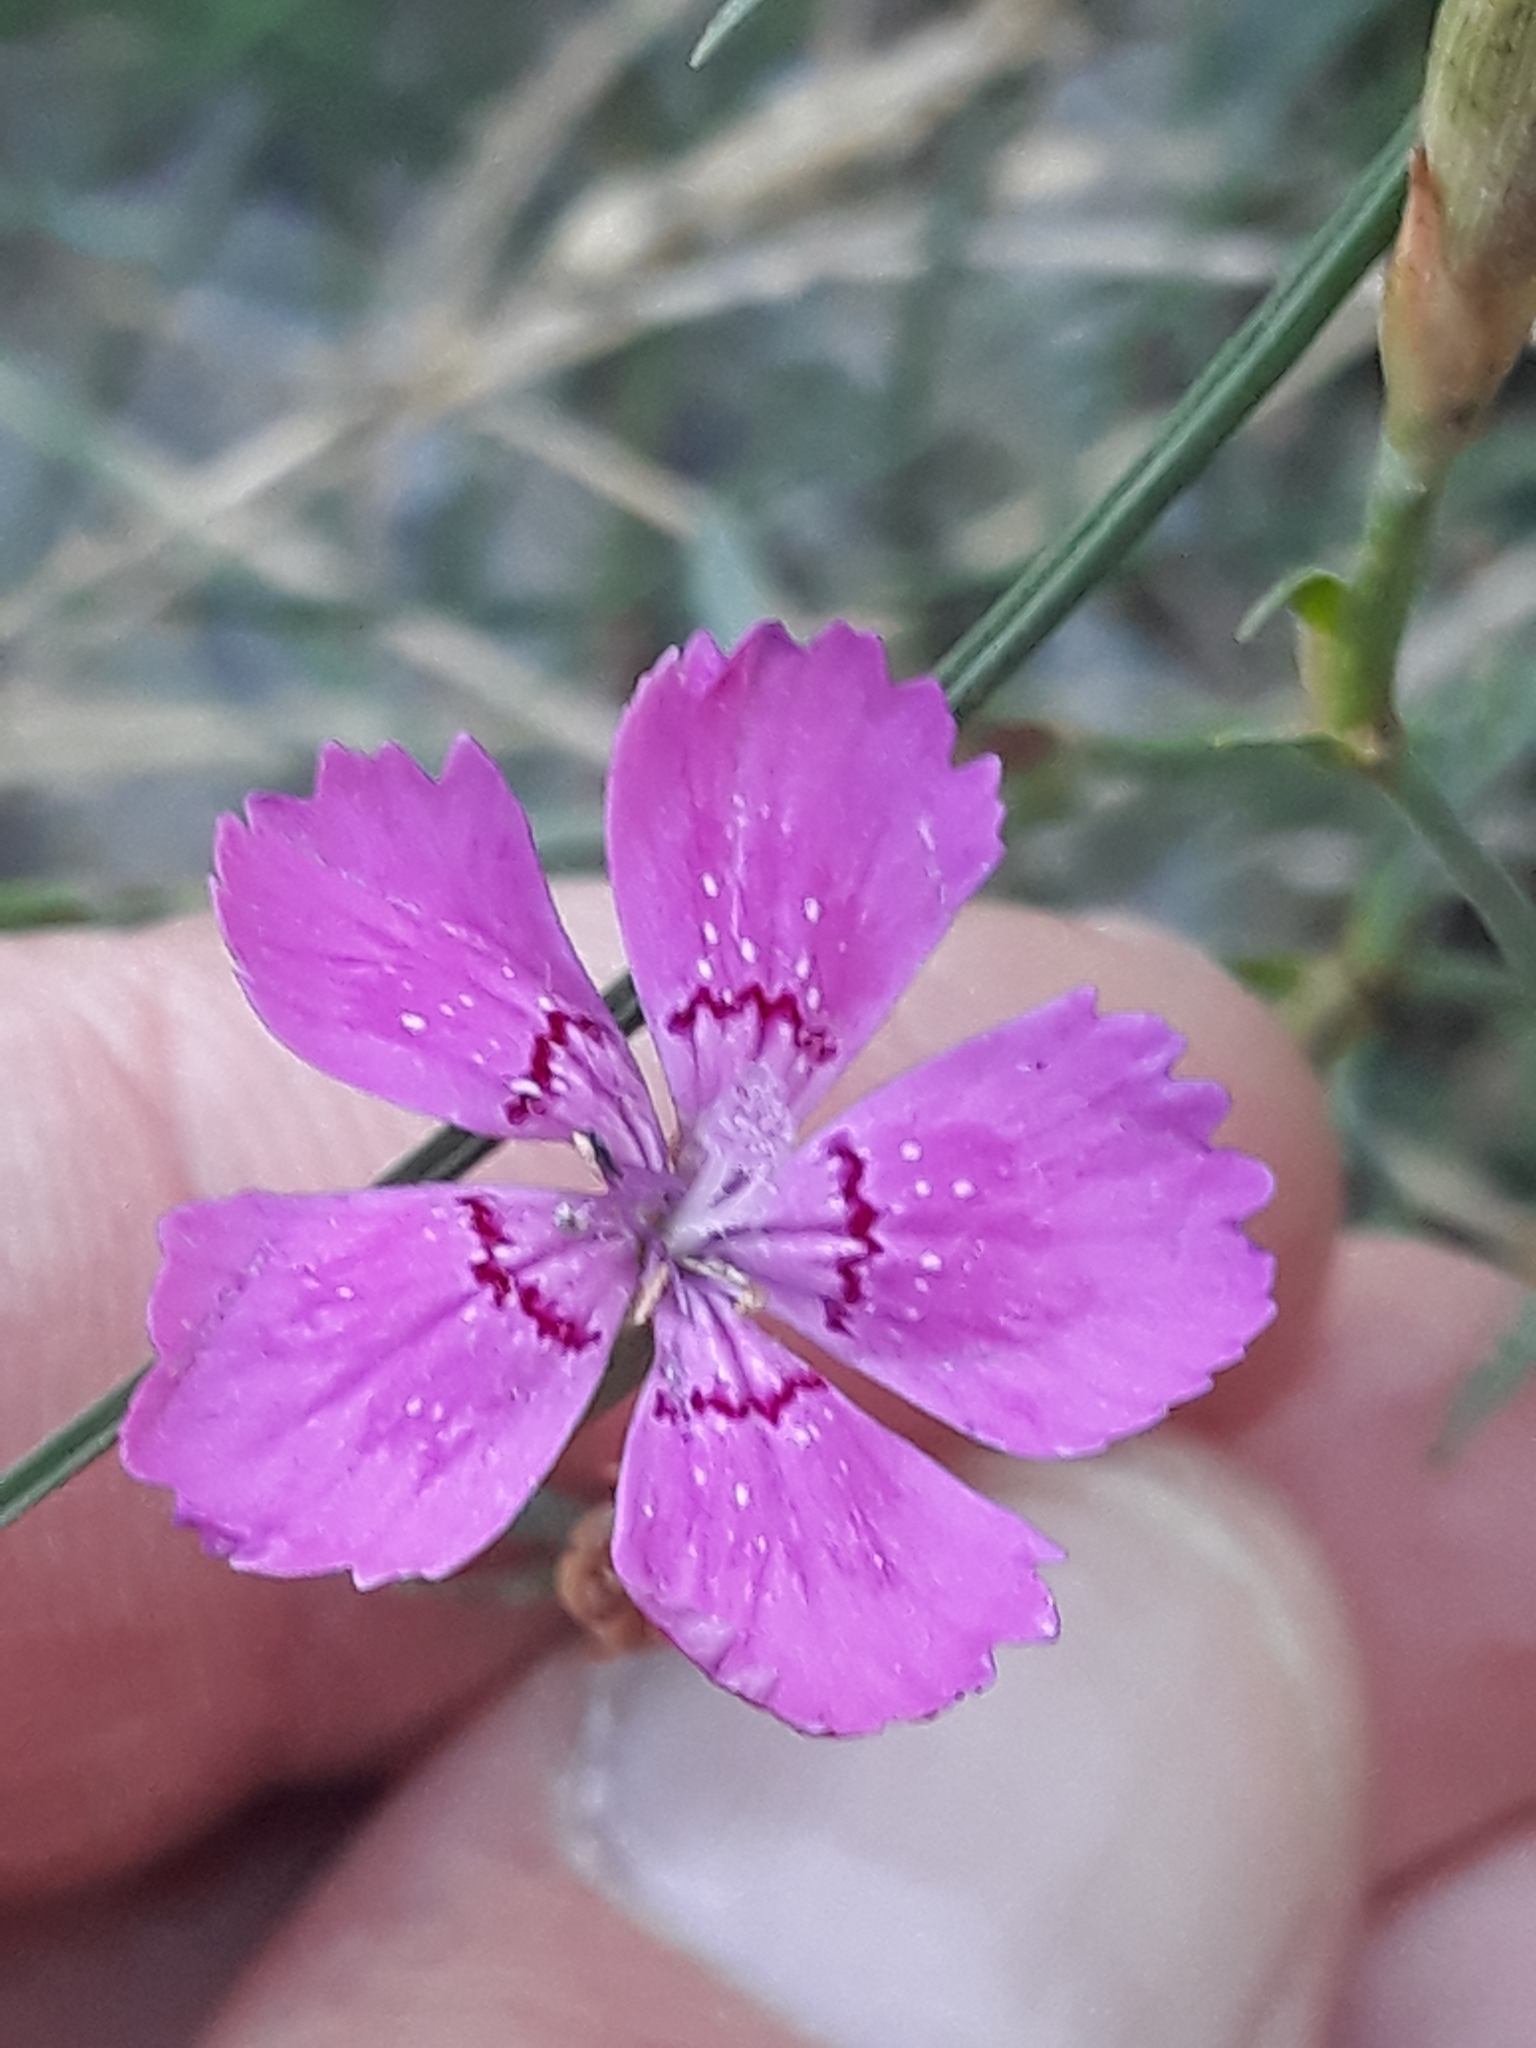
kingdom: Plantae
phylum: Tracheophyta
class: Magnoliopsida
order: Caryophyllales
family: Caryophyllaceae
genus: Dianthus
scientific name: Dianthus deltoides
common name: Maiden pink
